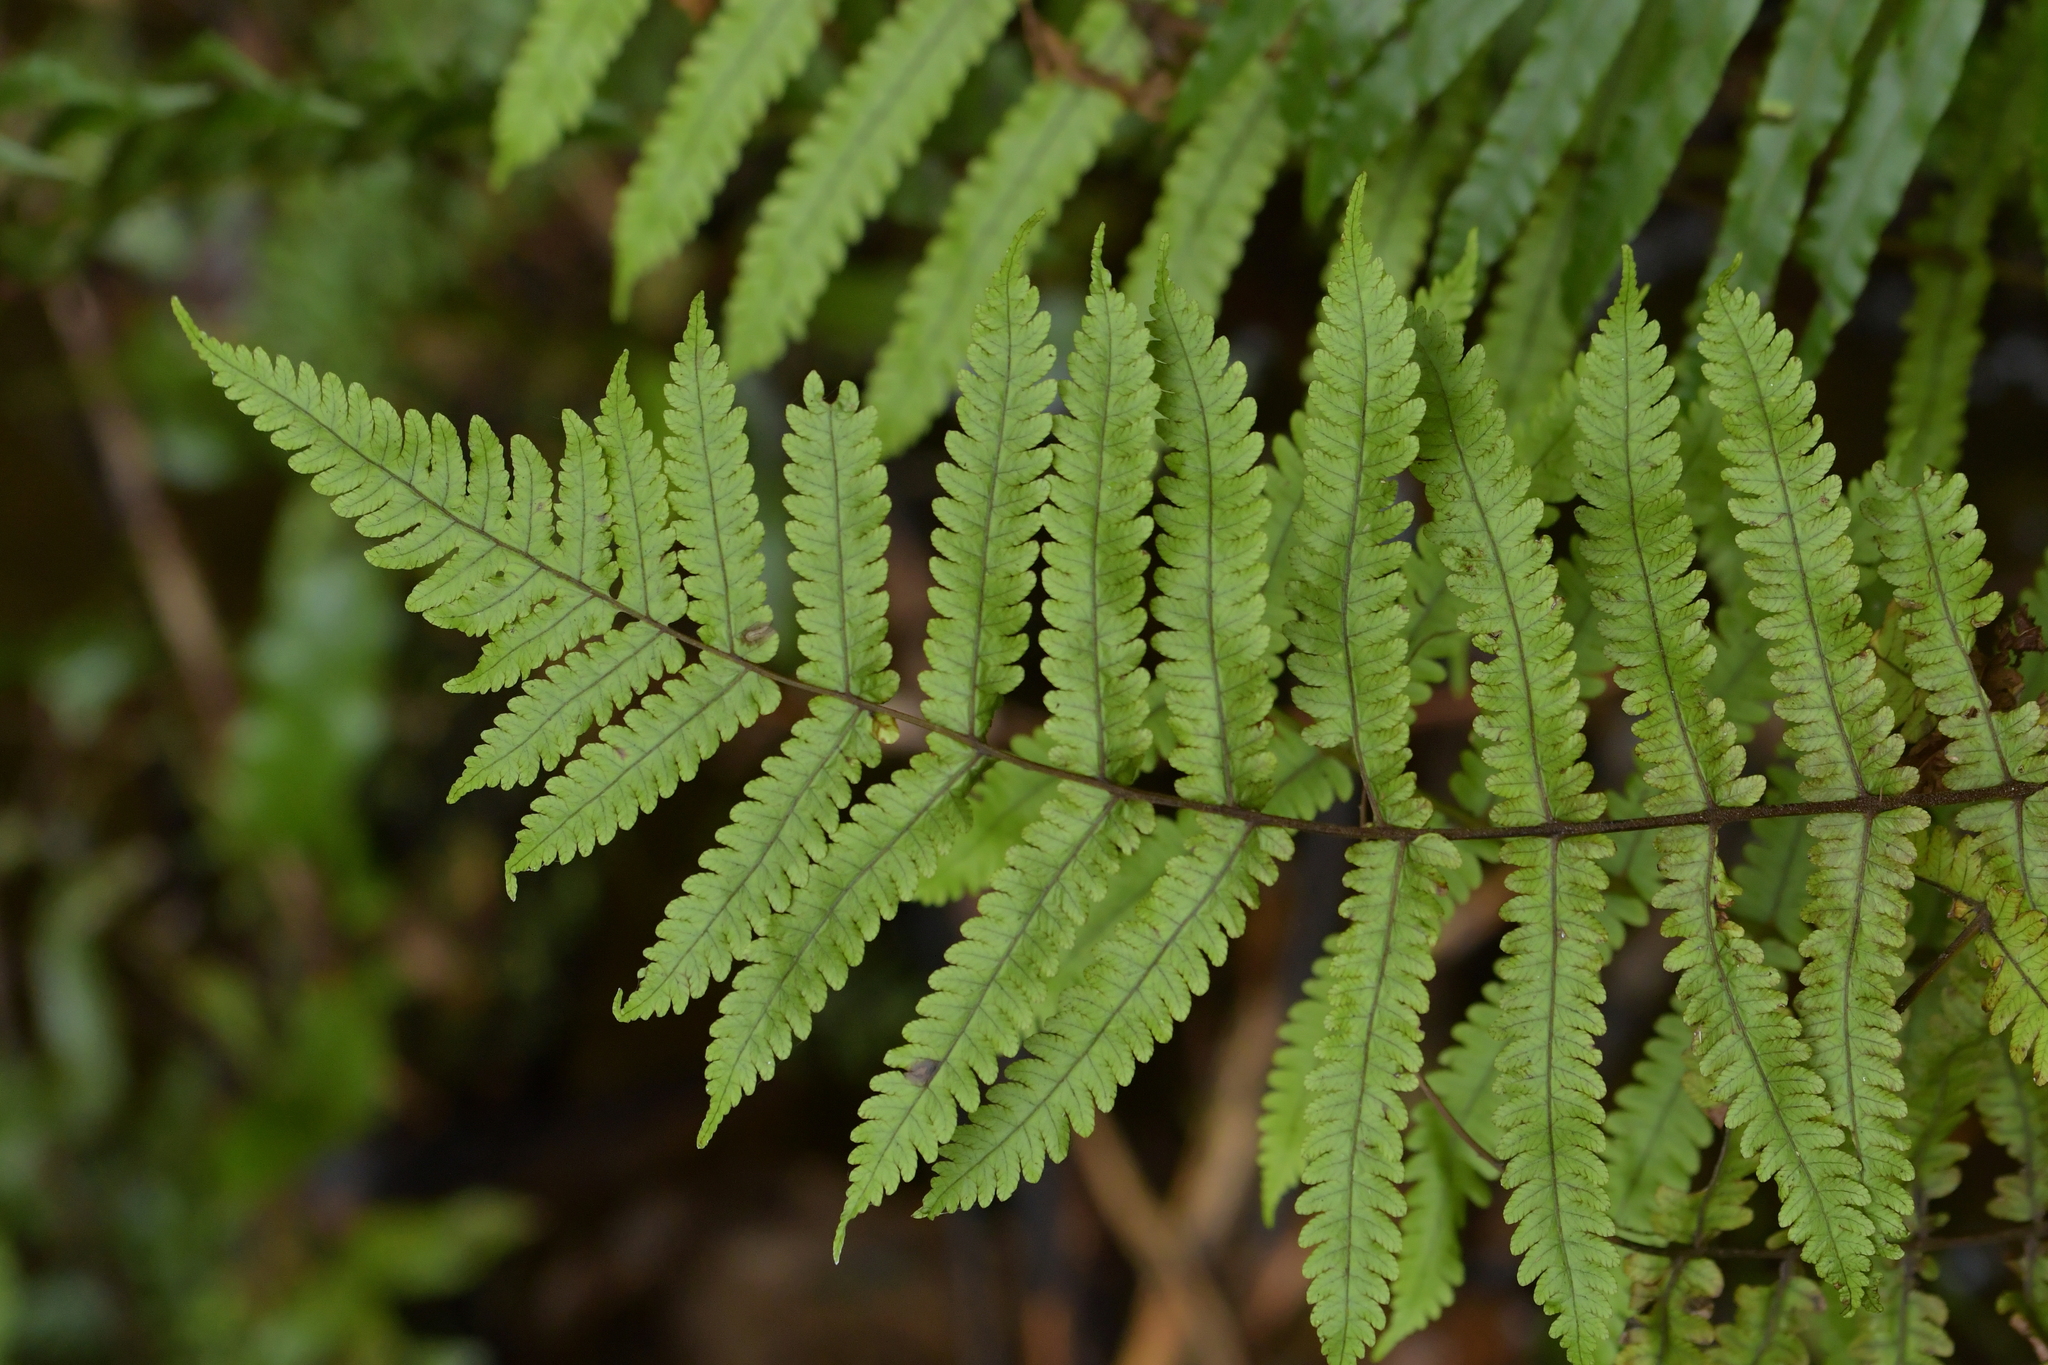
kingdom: Plantae
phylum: Tracheophyta
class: Polypodiopsida
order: Polypodiales
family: Thelypteridaceae
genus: Pakau
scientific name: Pakau pennigera
